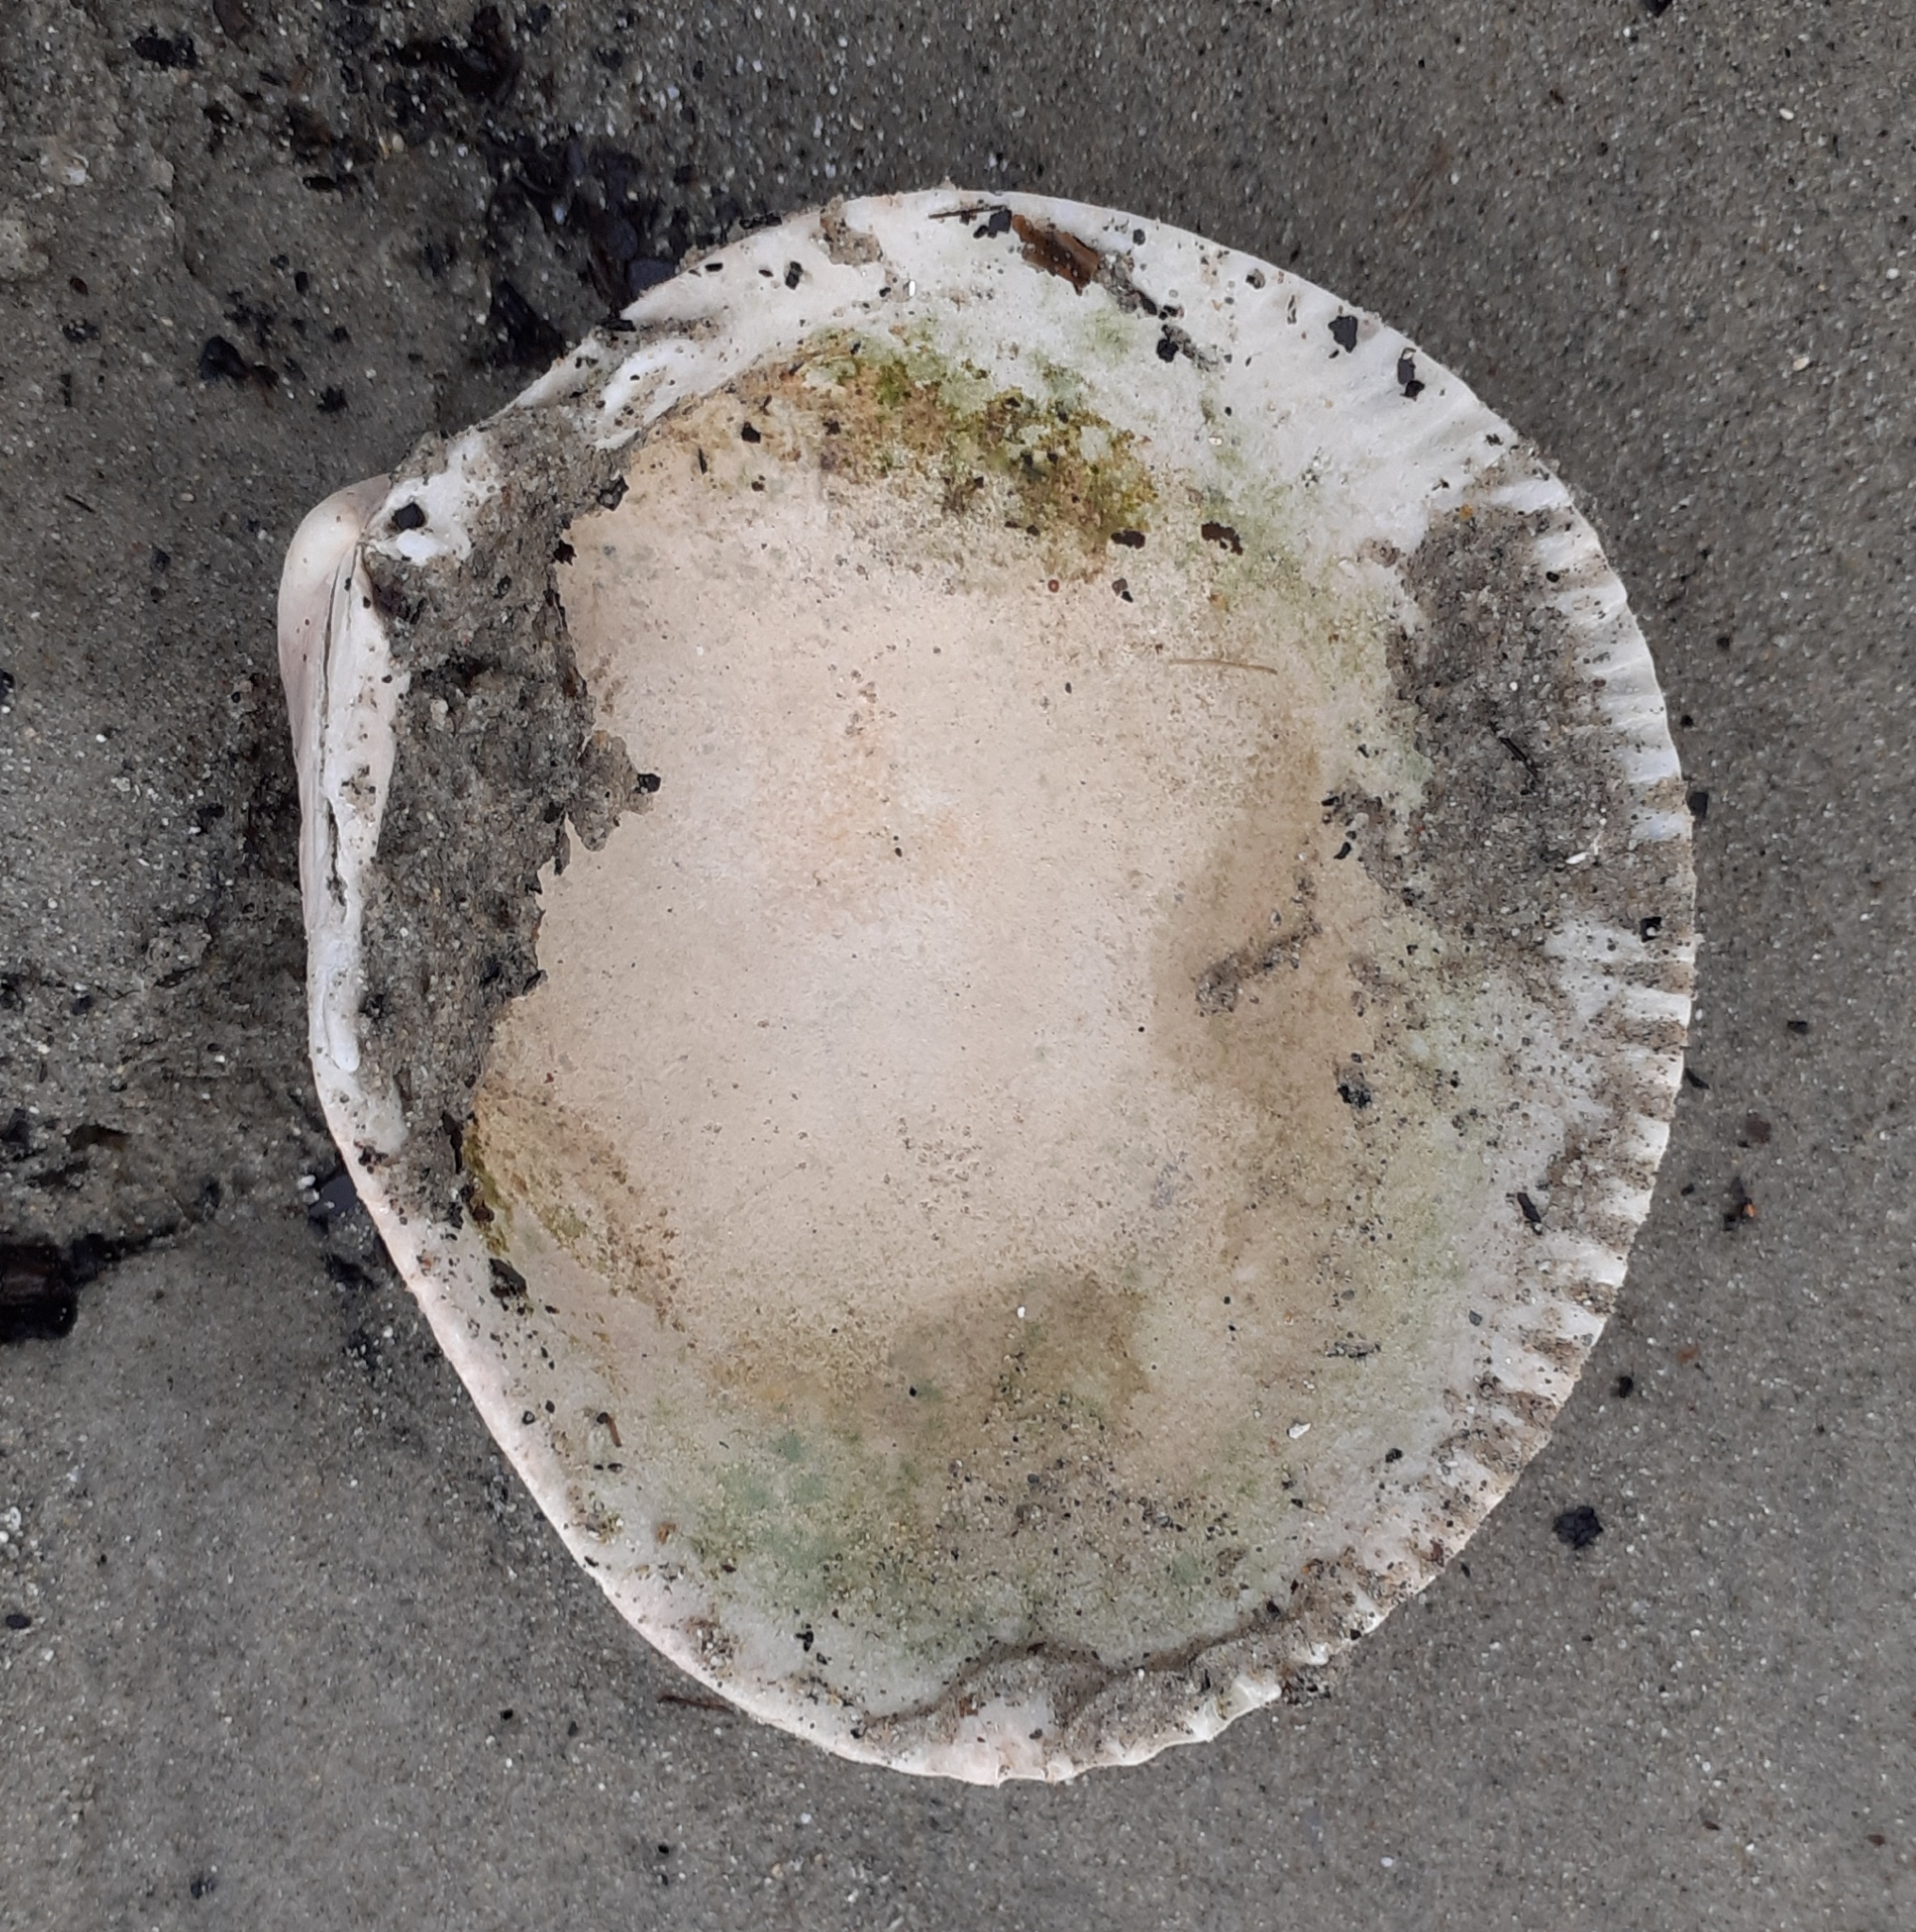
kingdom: Animalia
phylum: Mollusca
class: Bivalvia
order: Cardiida
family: Cardiidae
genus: Laevicardium
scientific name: Laevicardium crassum
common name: Norway cockle
